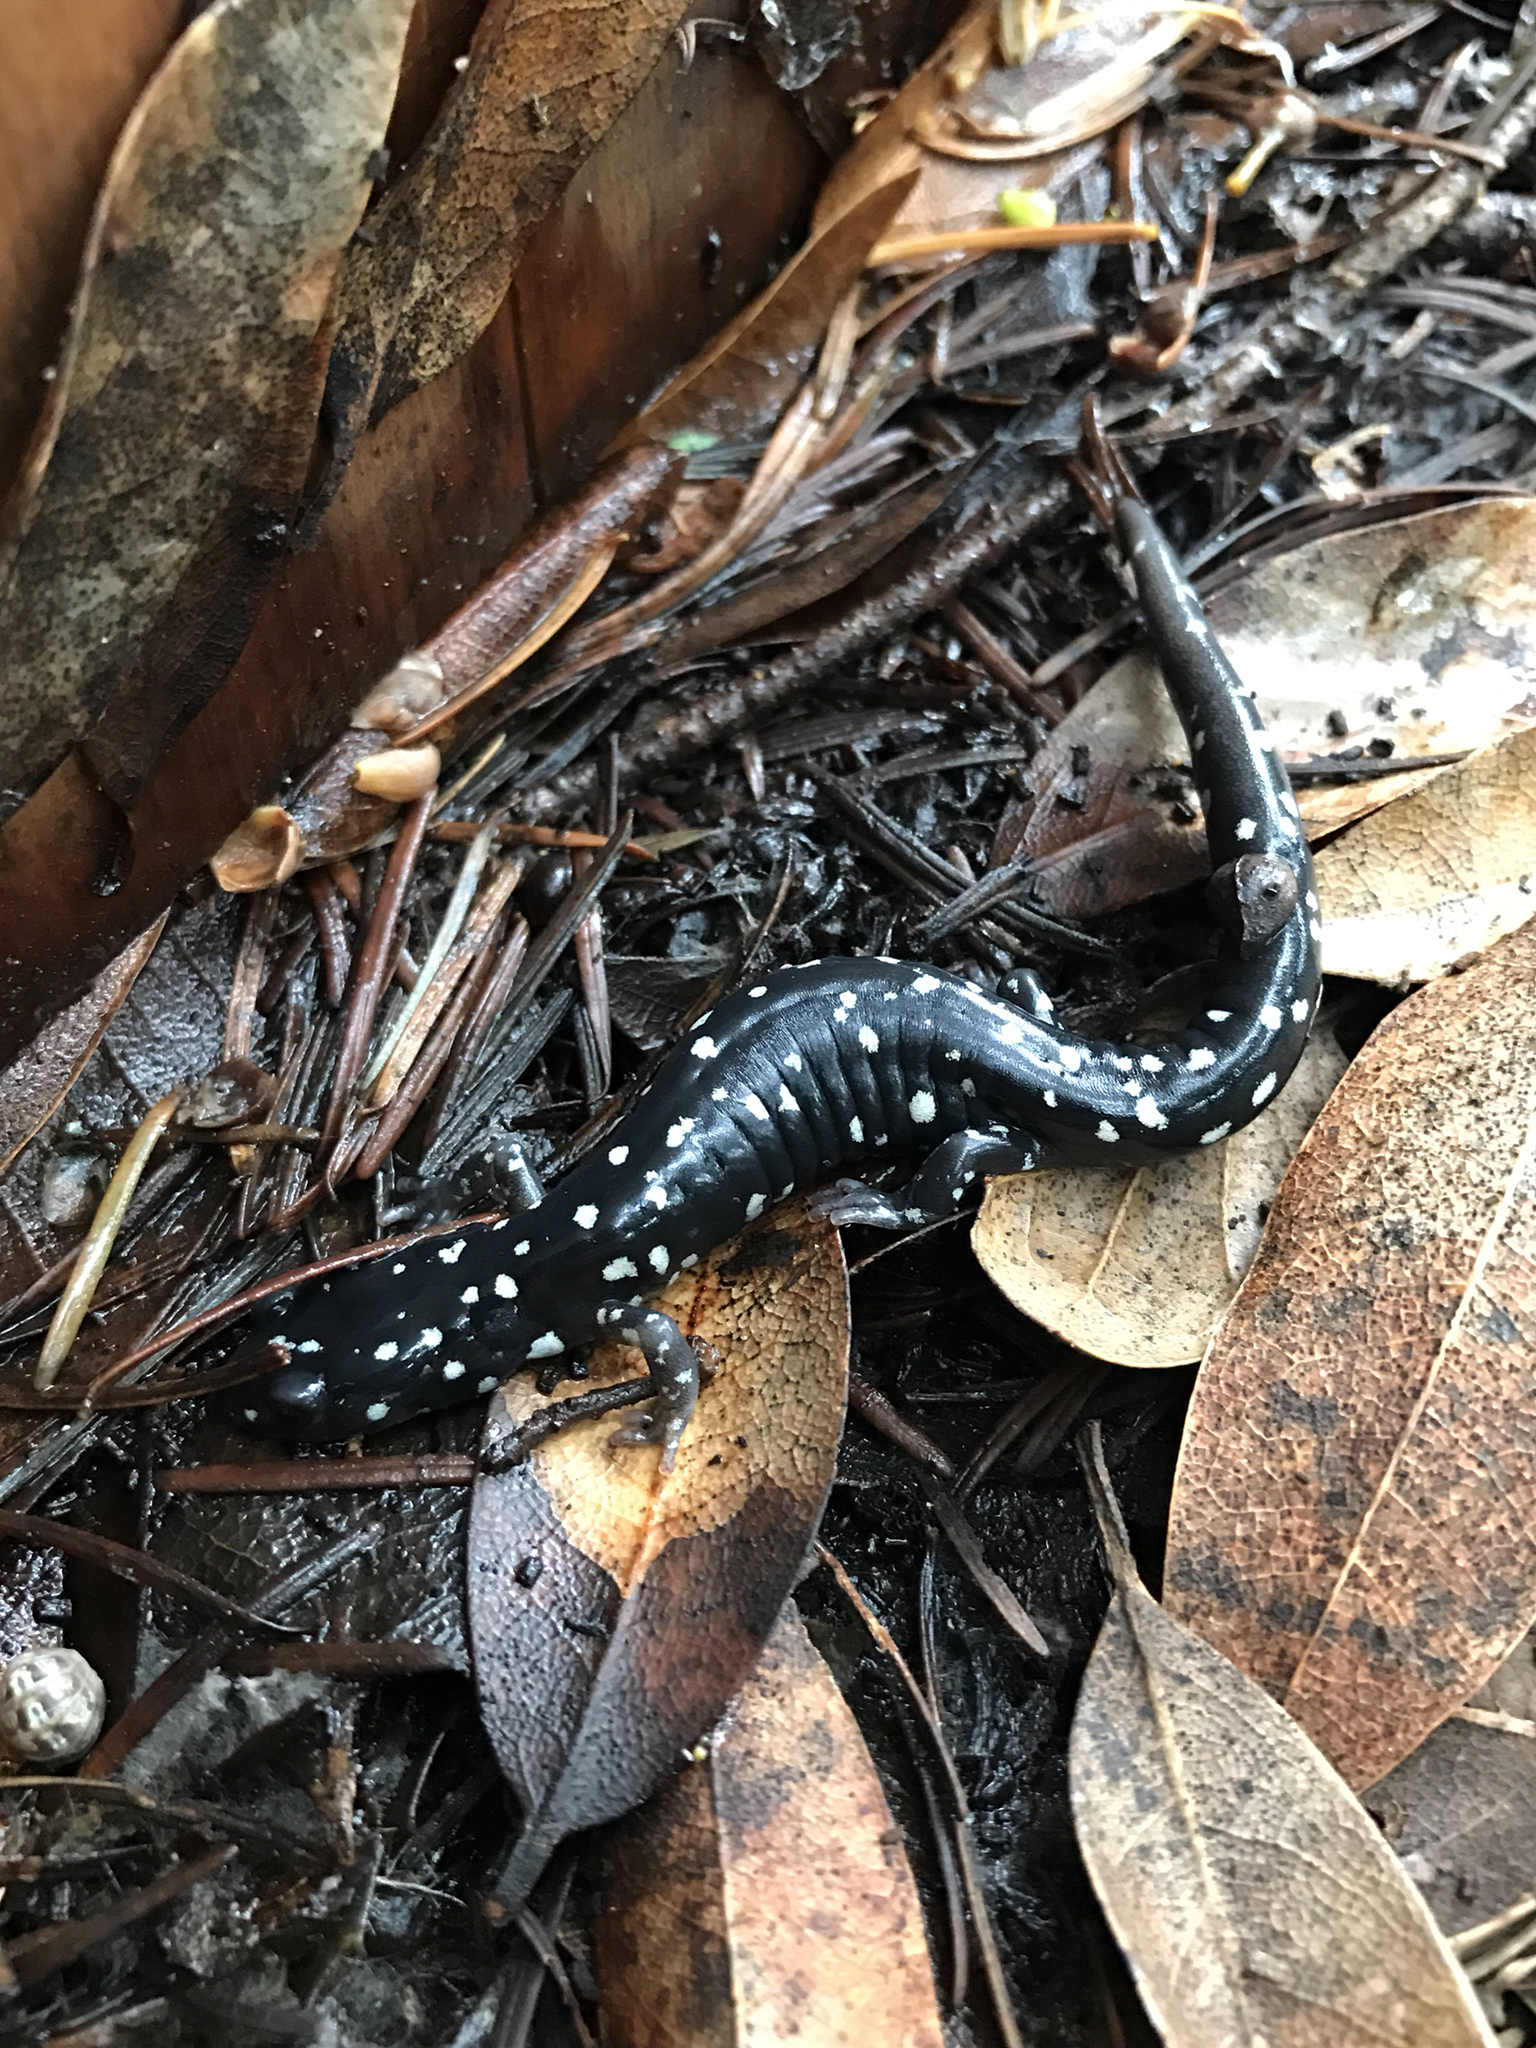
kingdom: Animalia
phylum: Chordata
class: Amphibia
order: Caudata
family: Plethodontidae
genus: Aneides
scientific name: Aneides flavipunctatus
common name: Black salamander
